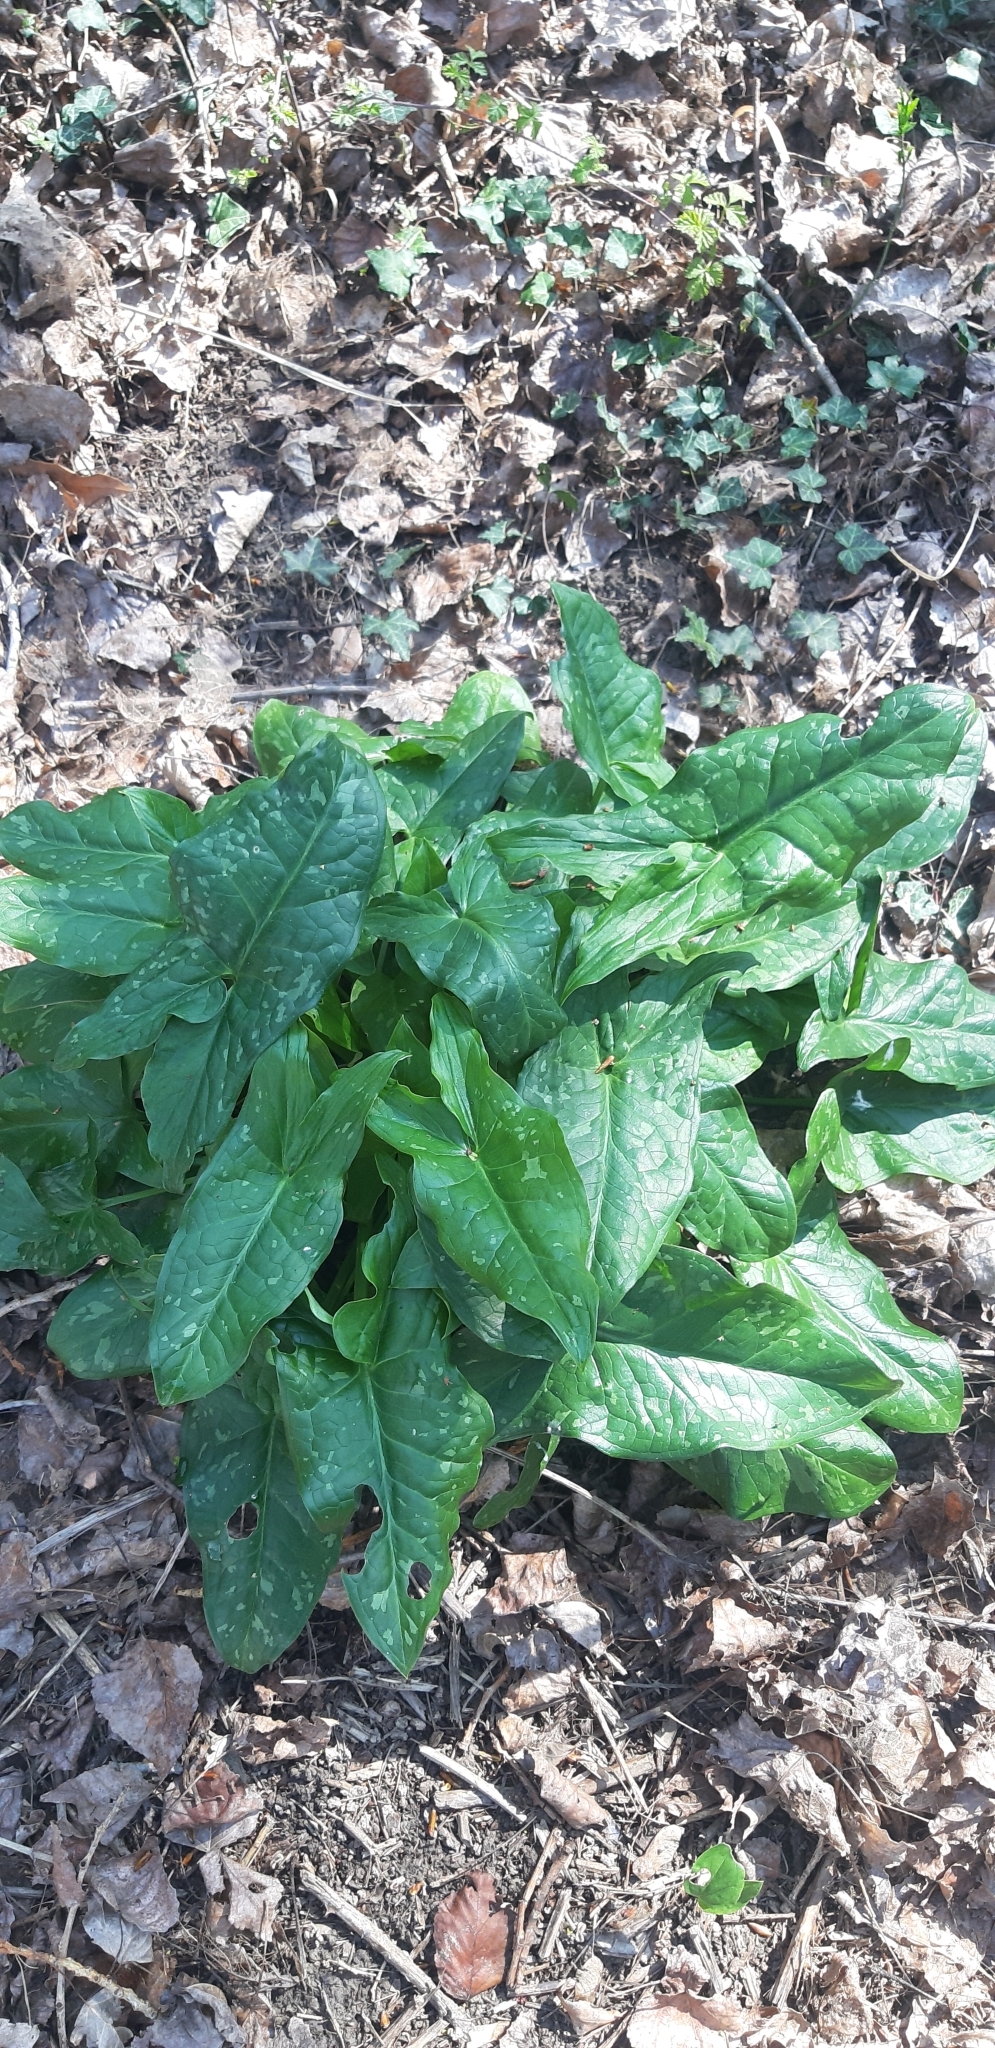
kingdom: Plantae
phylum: Tracheophyta
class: Liliopsida
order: Alismatales
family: Araceae
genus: Arum
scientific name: Arum italicum
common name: Italian lords-and-ladies
